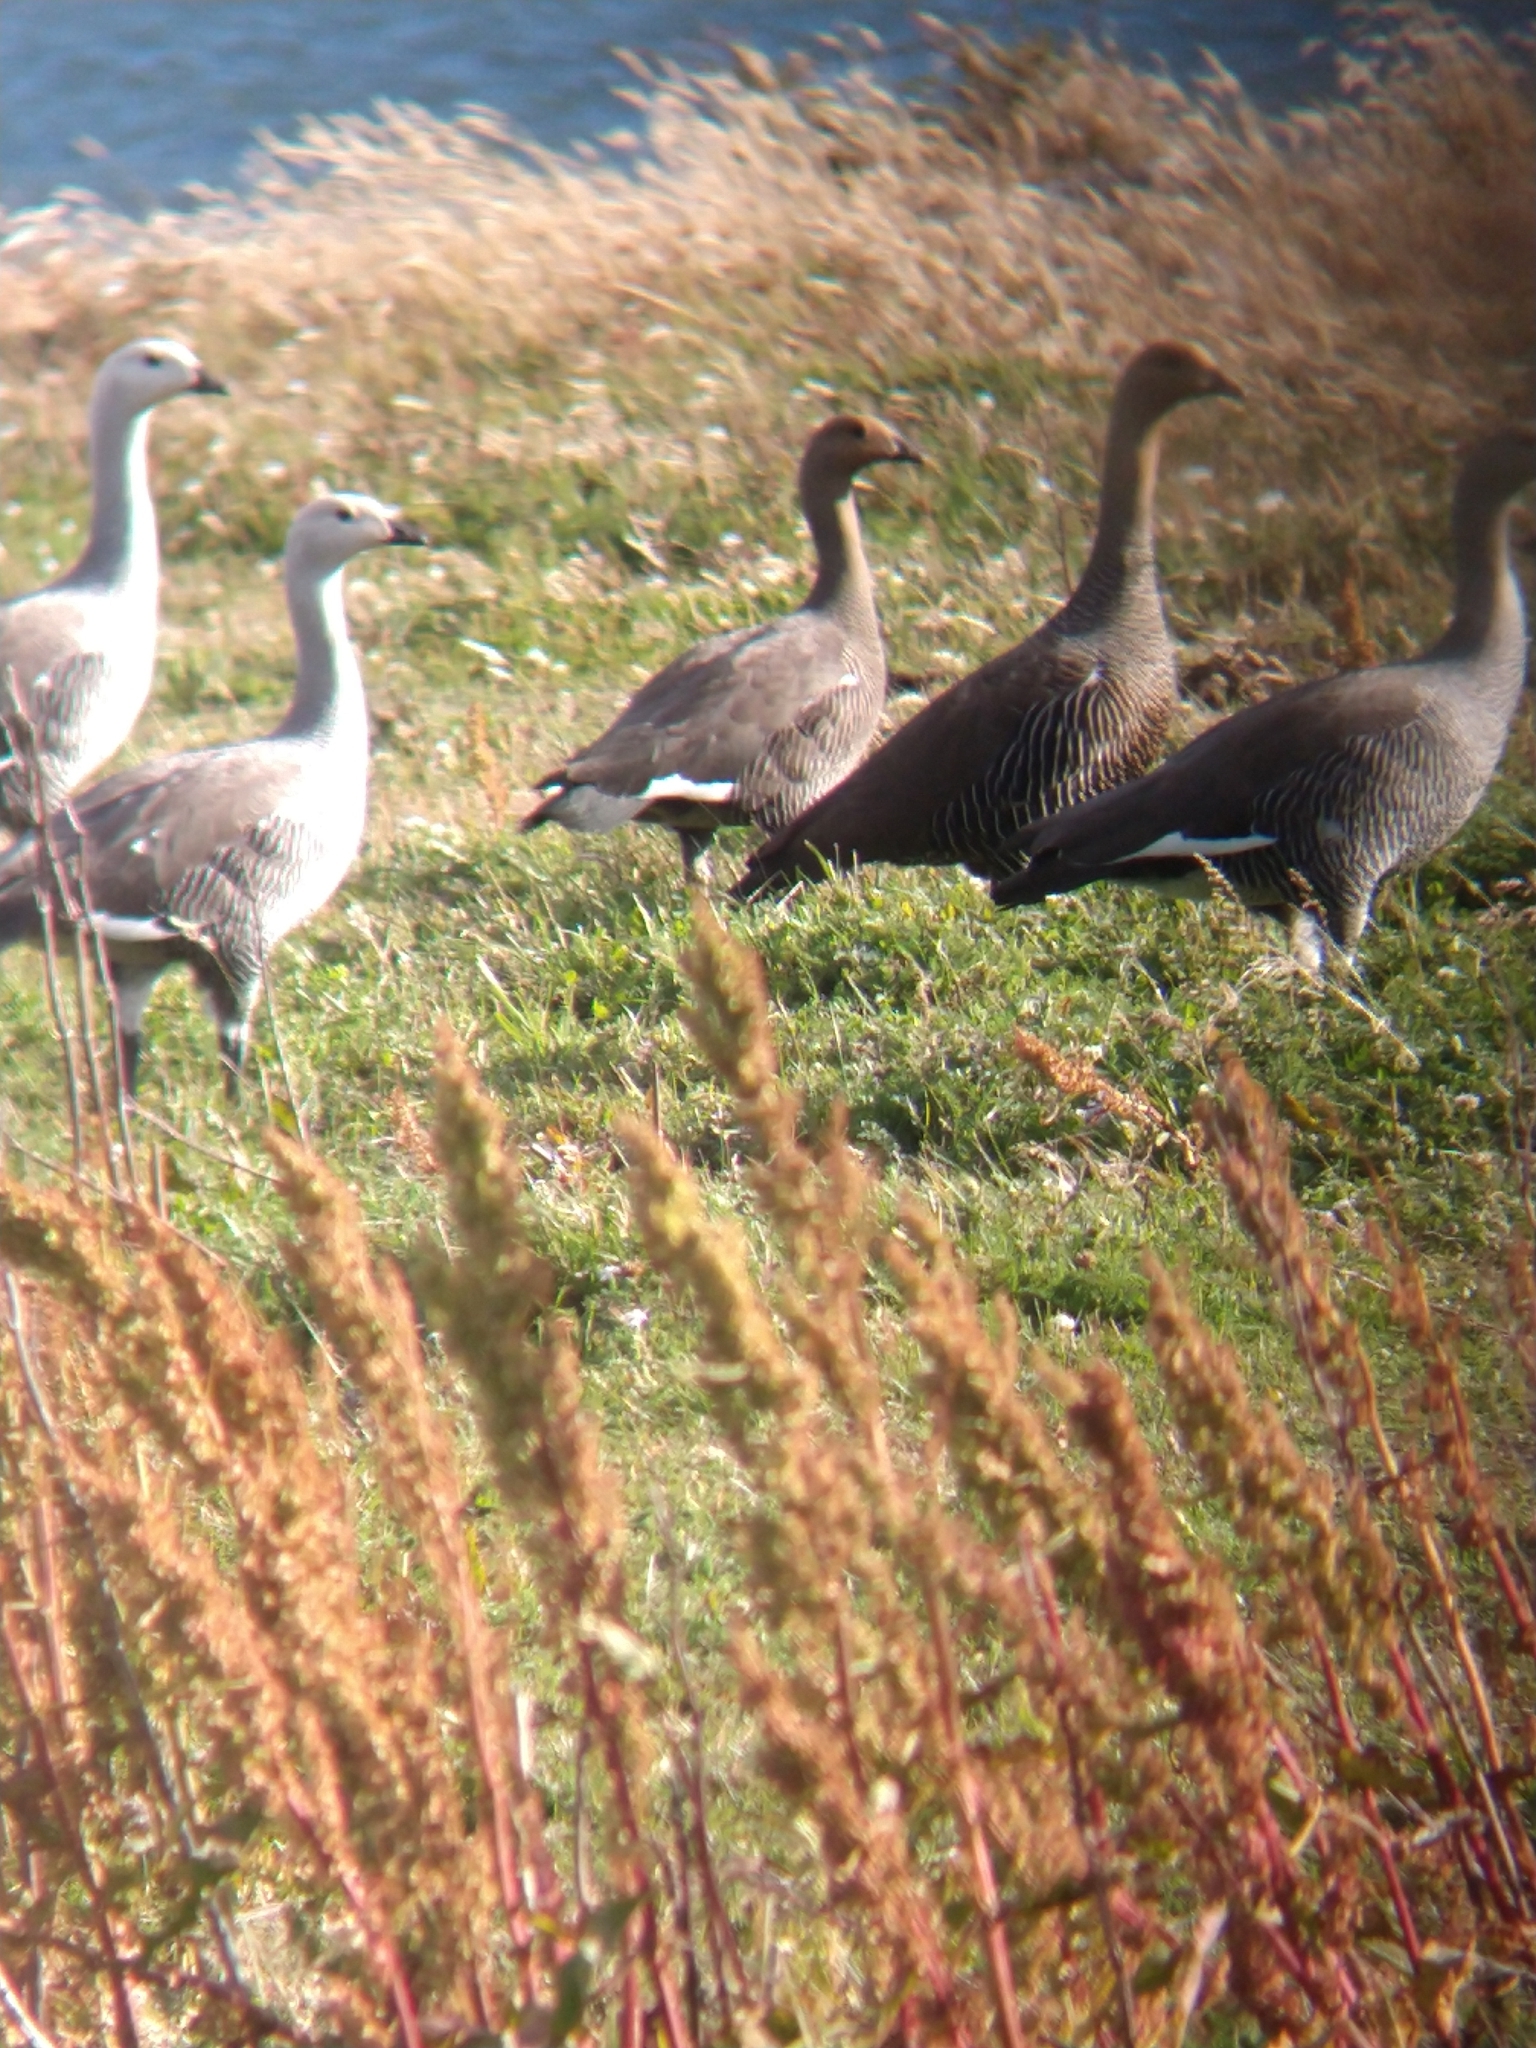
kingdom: Animalia
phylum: Chordata
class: Aves
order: Anseriformes
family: Anatidae
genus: Chloephaga
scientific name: Chloephaga picta
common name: Upland goose
